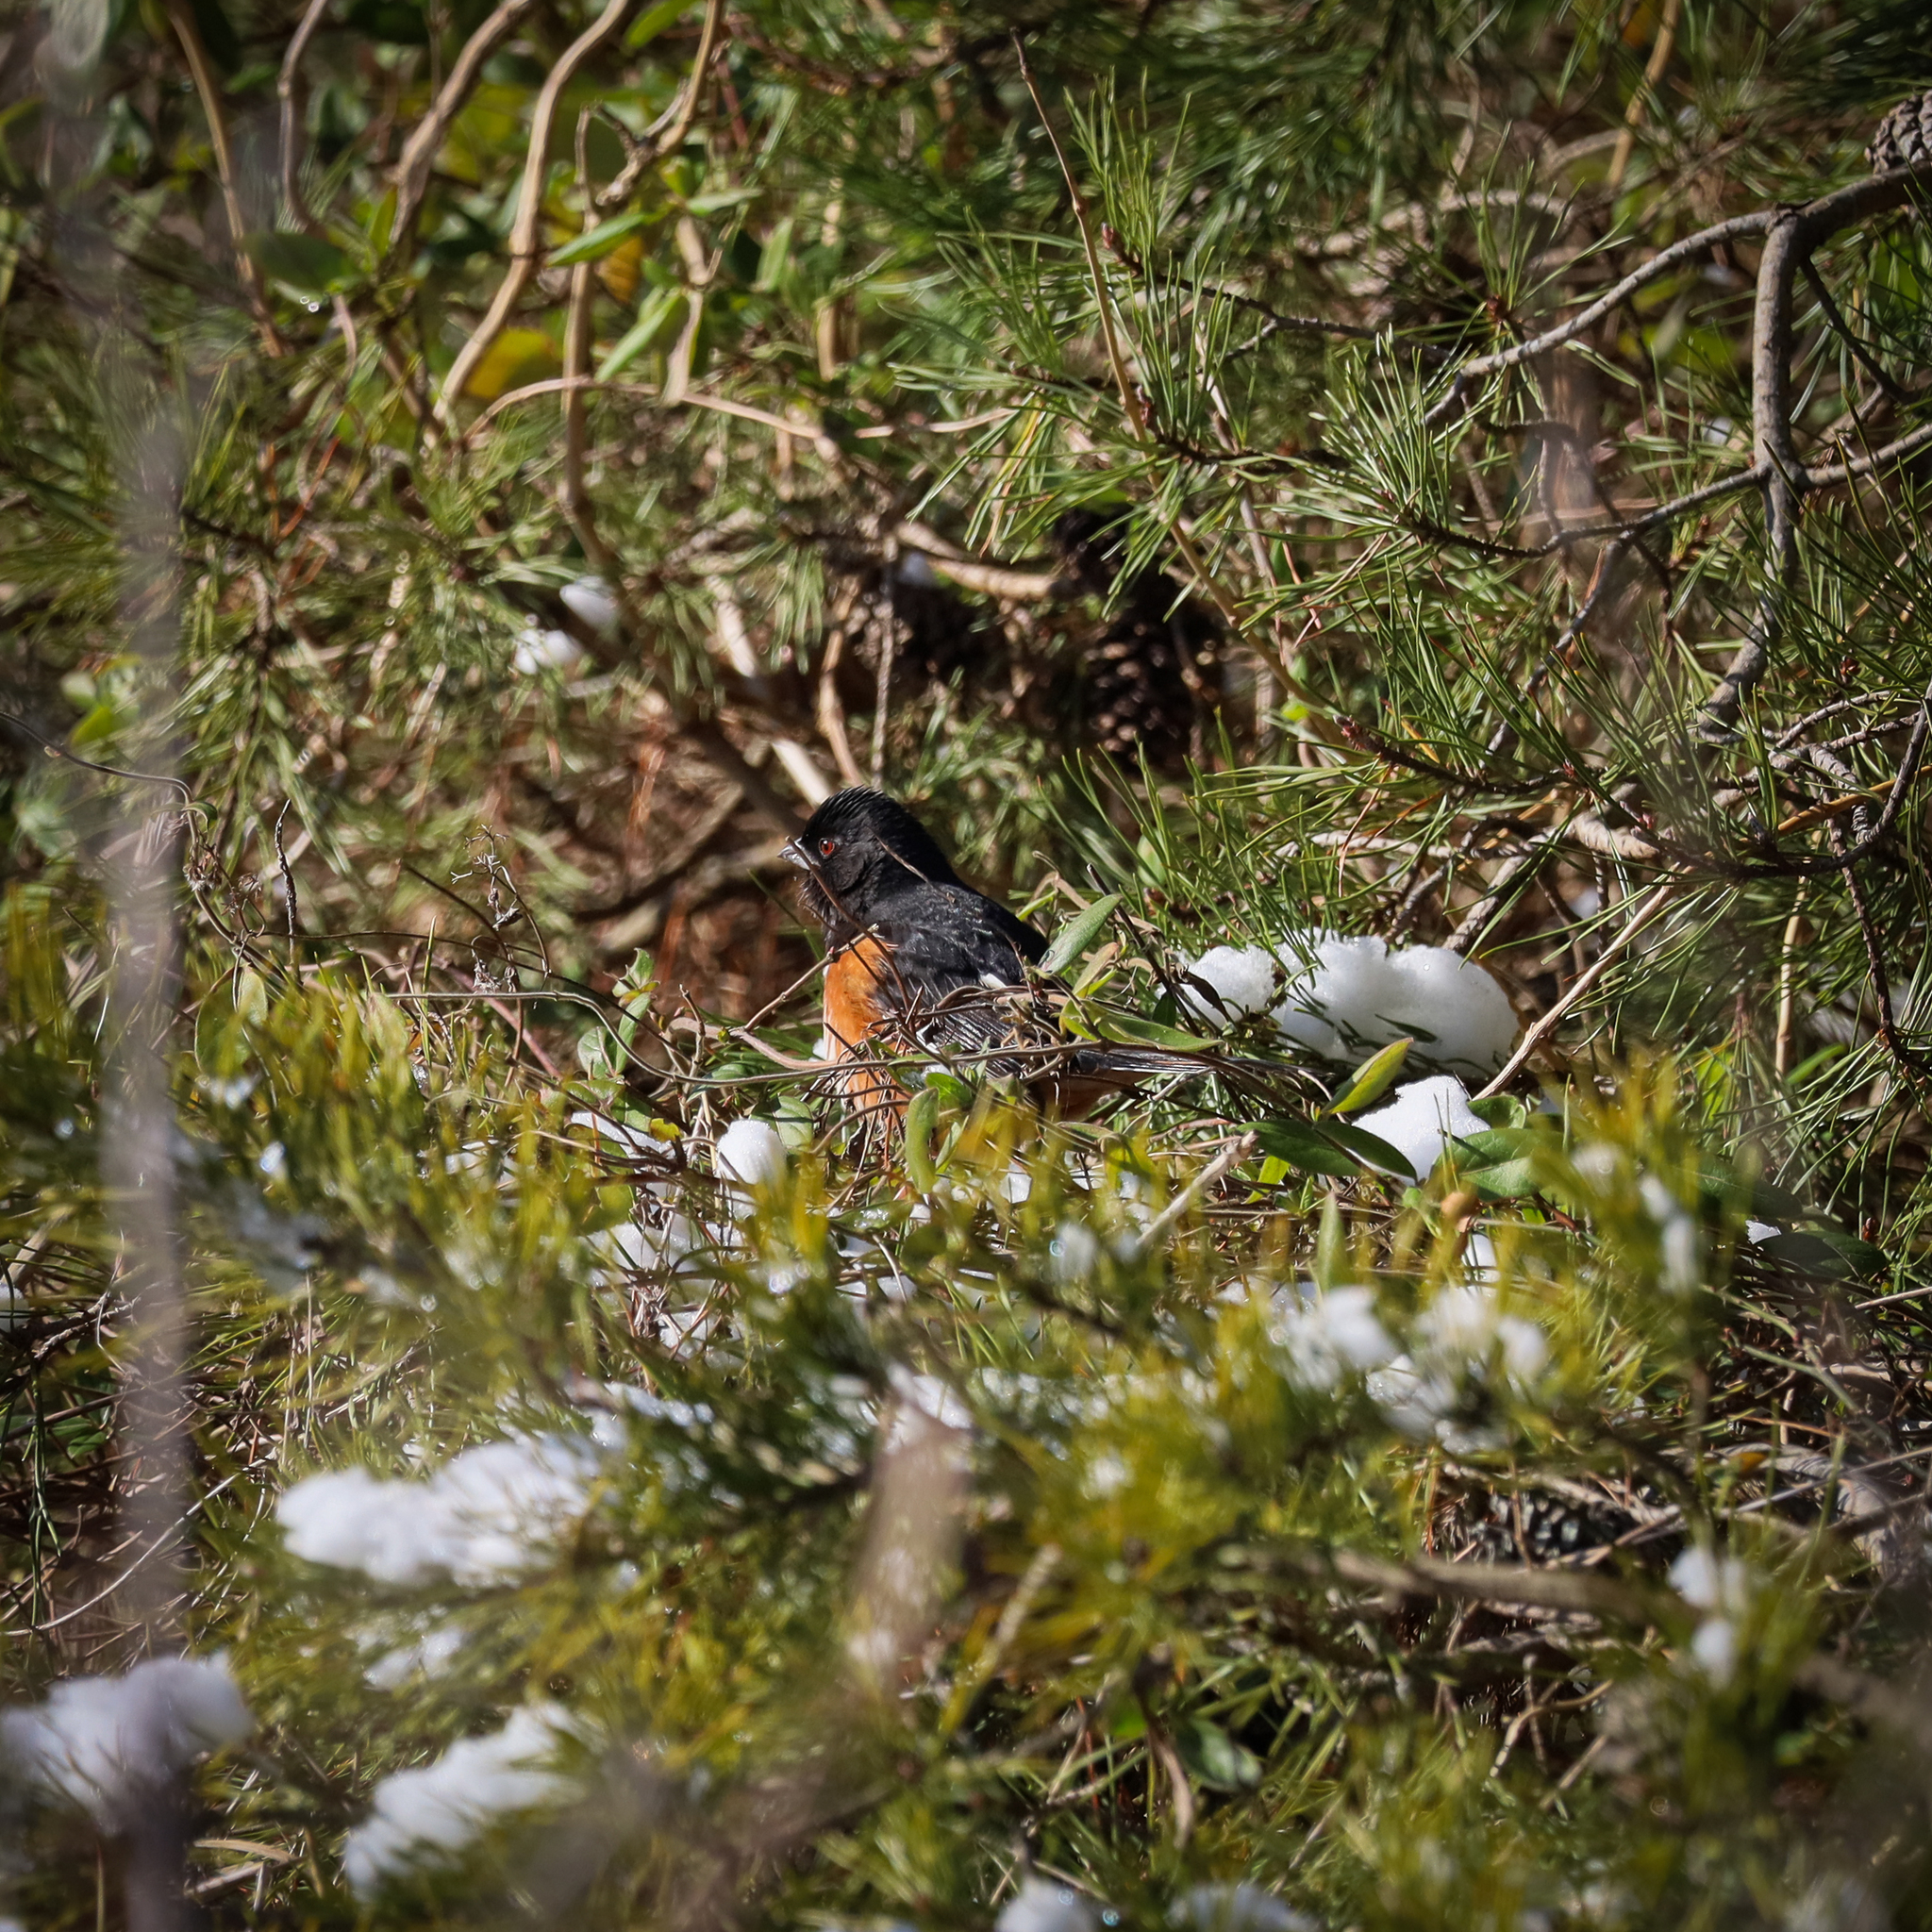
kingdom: Animalia
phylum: Chordata
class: Aves
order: Passeriformes
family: Passerellidae
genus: Pipilo
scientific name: Pipilo erythrophthalmus
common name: Eastern towhee
